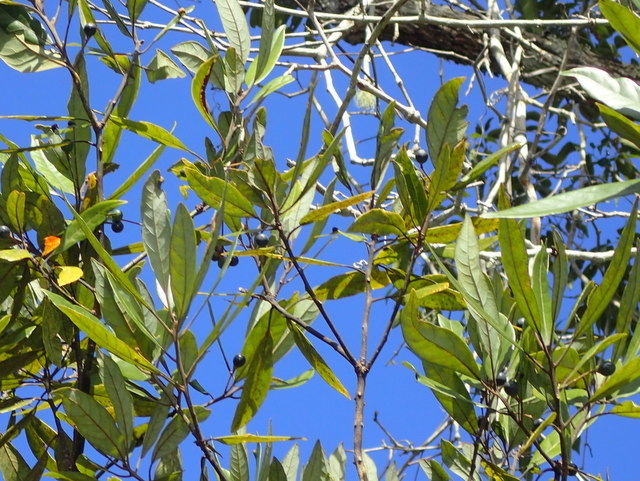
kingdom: Plantae
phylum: Tracheophyta
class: Magnoliopsida
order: Laurales
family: Lauraceae
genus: Persea
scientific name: Persea palustris
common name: Swampbay
